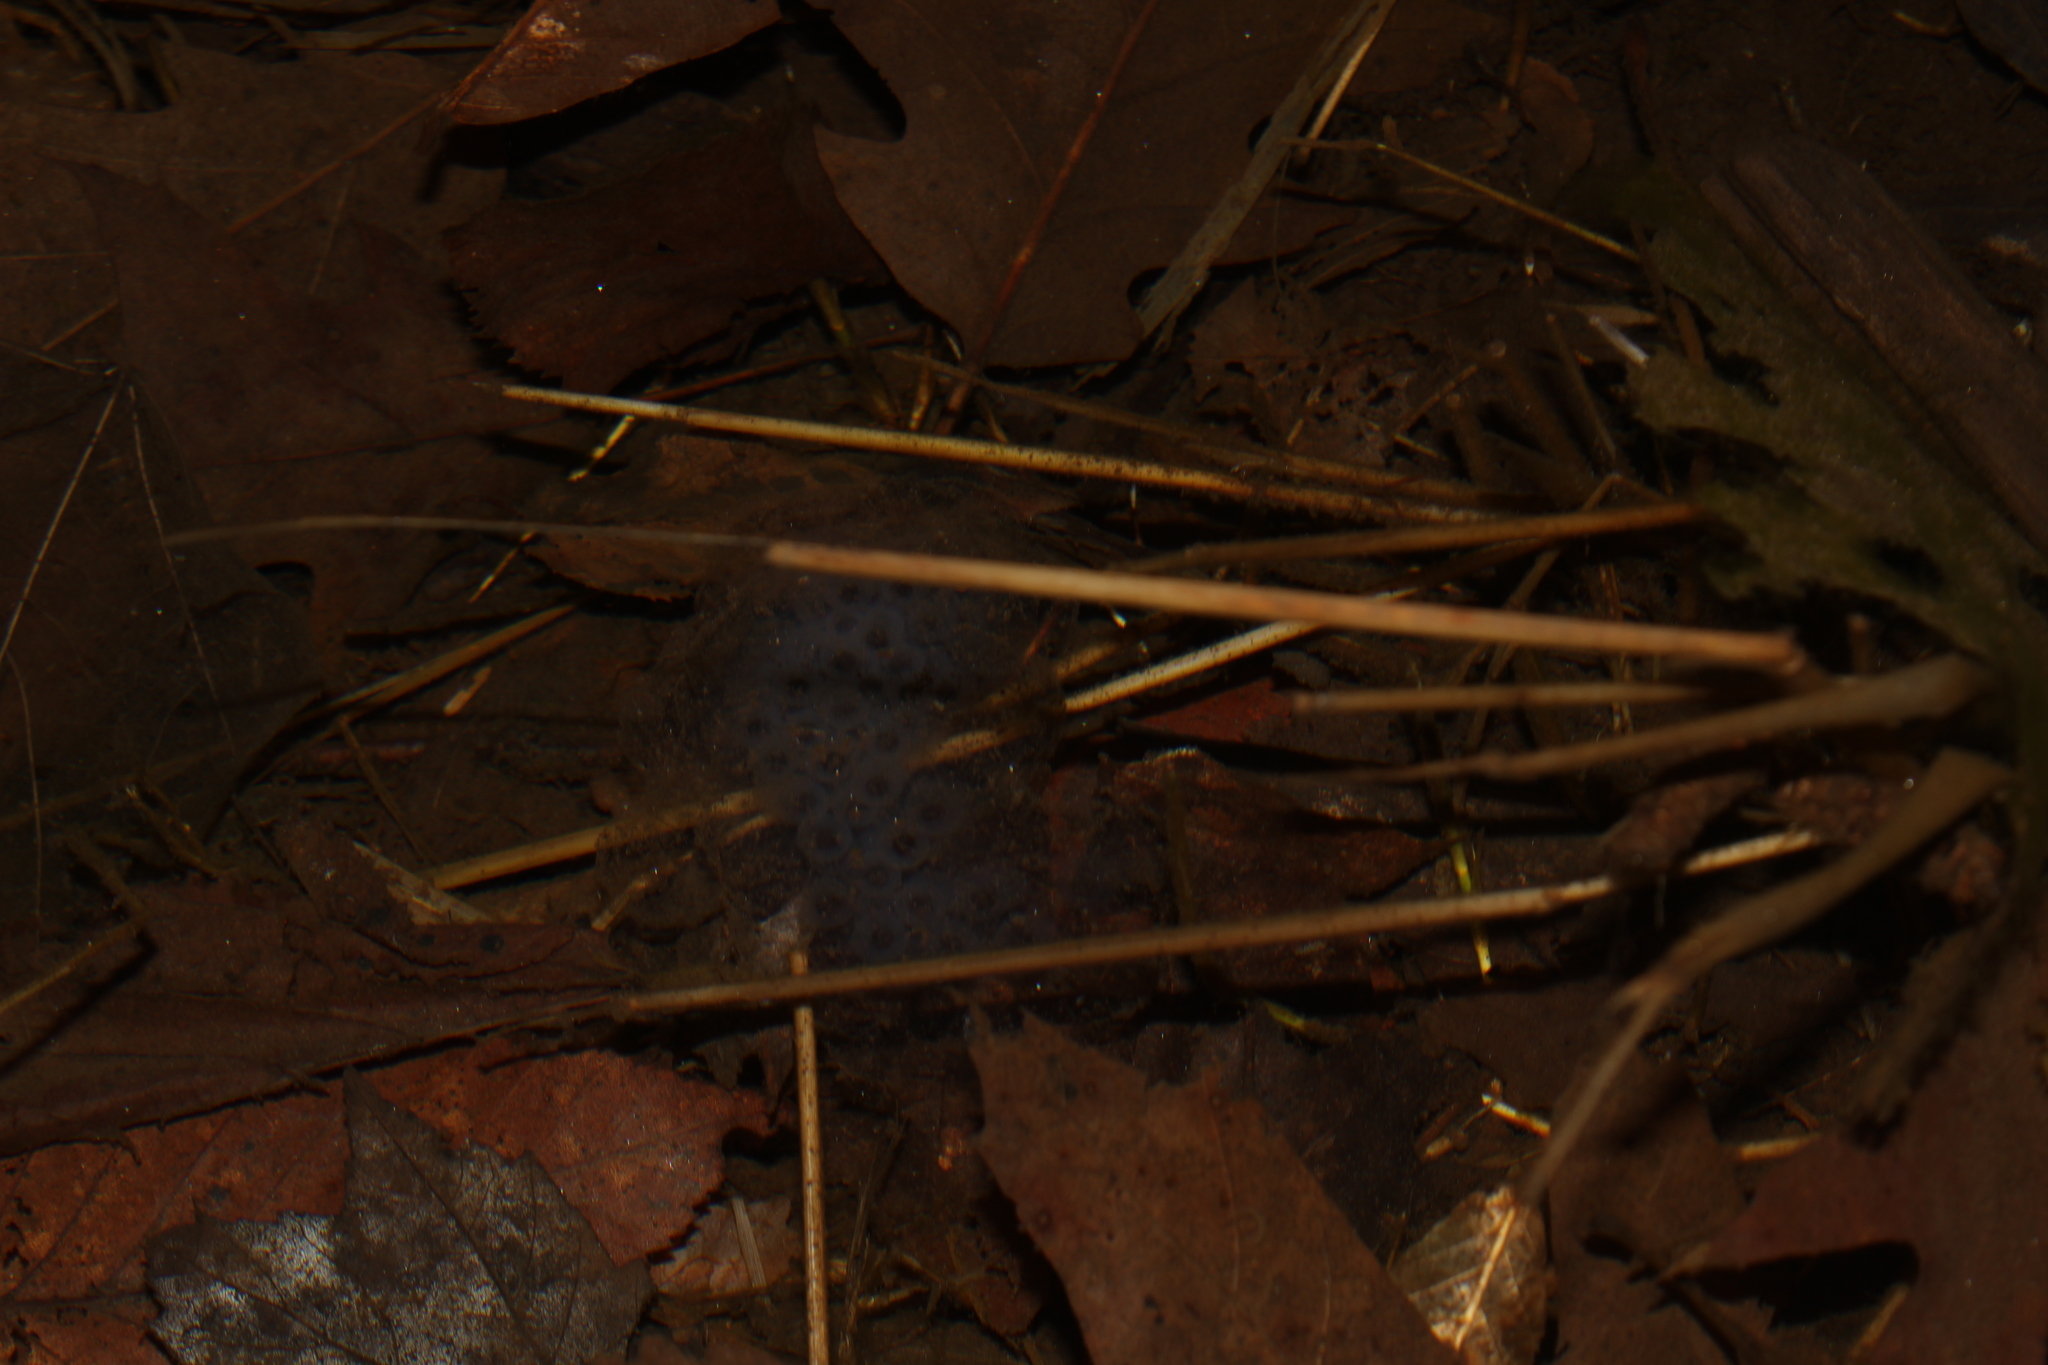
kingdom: Animalia
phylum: Chordata
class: Amphibia
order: Caudata
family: Ambystomatidae
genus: Ambystoma
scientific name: Ambystoma maculatum
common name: Spotted salamander
